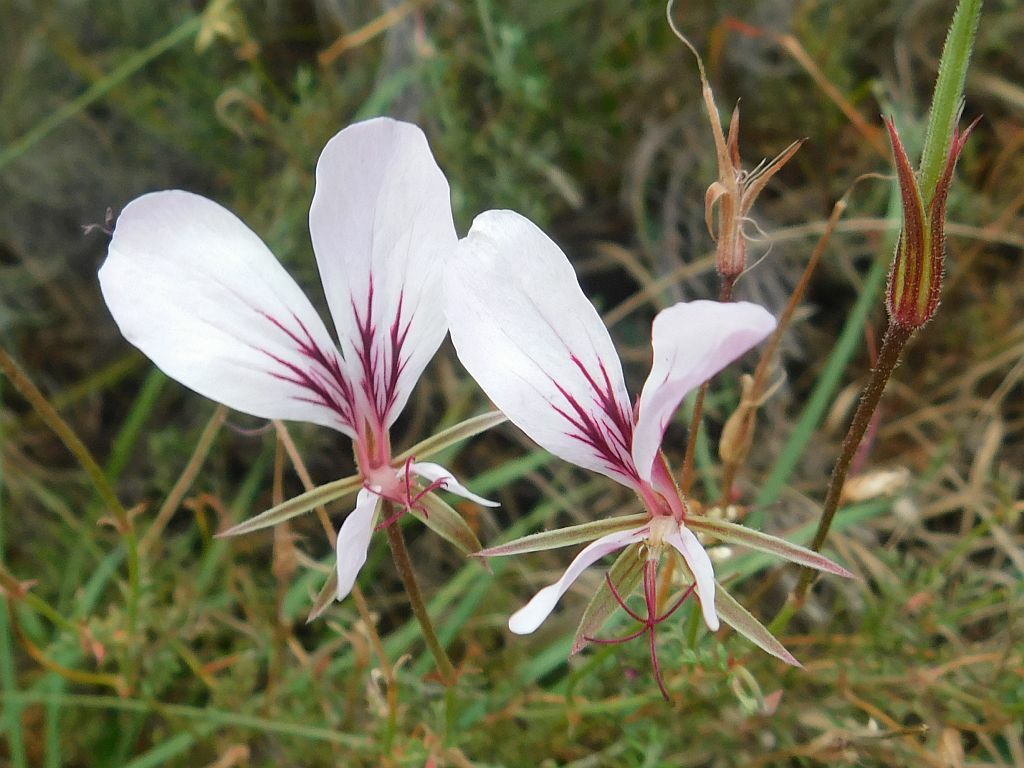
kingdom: Plantae
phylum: Tracheophyta
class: Magnoliopsida
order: Geraniales
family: Geraniaceae
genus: Pelargonium
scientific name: Pelargonium caucalifolium
